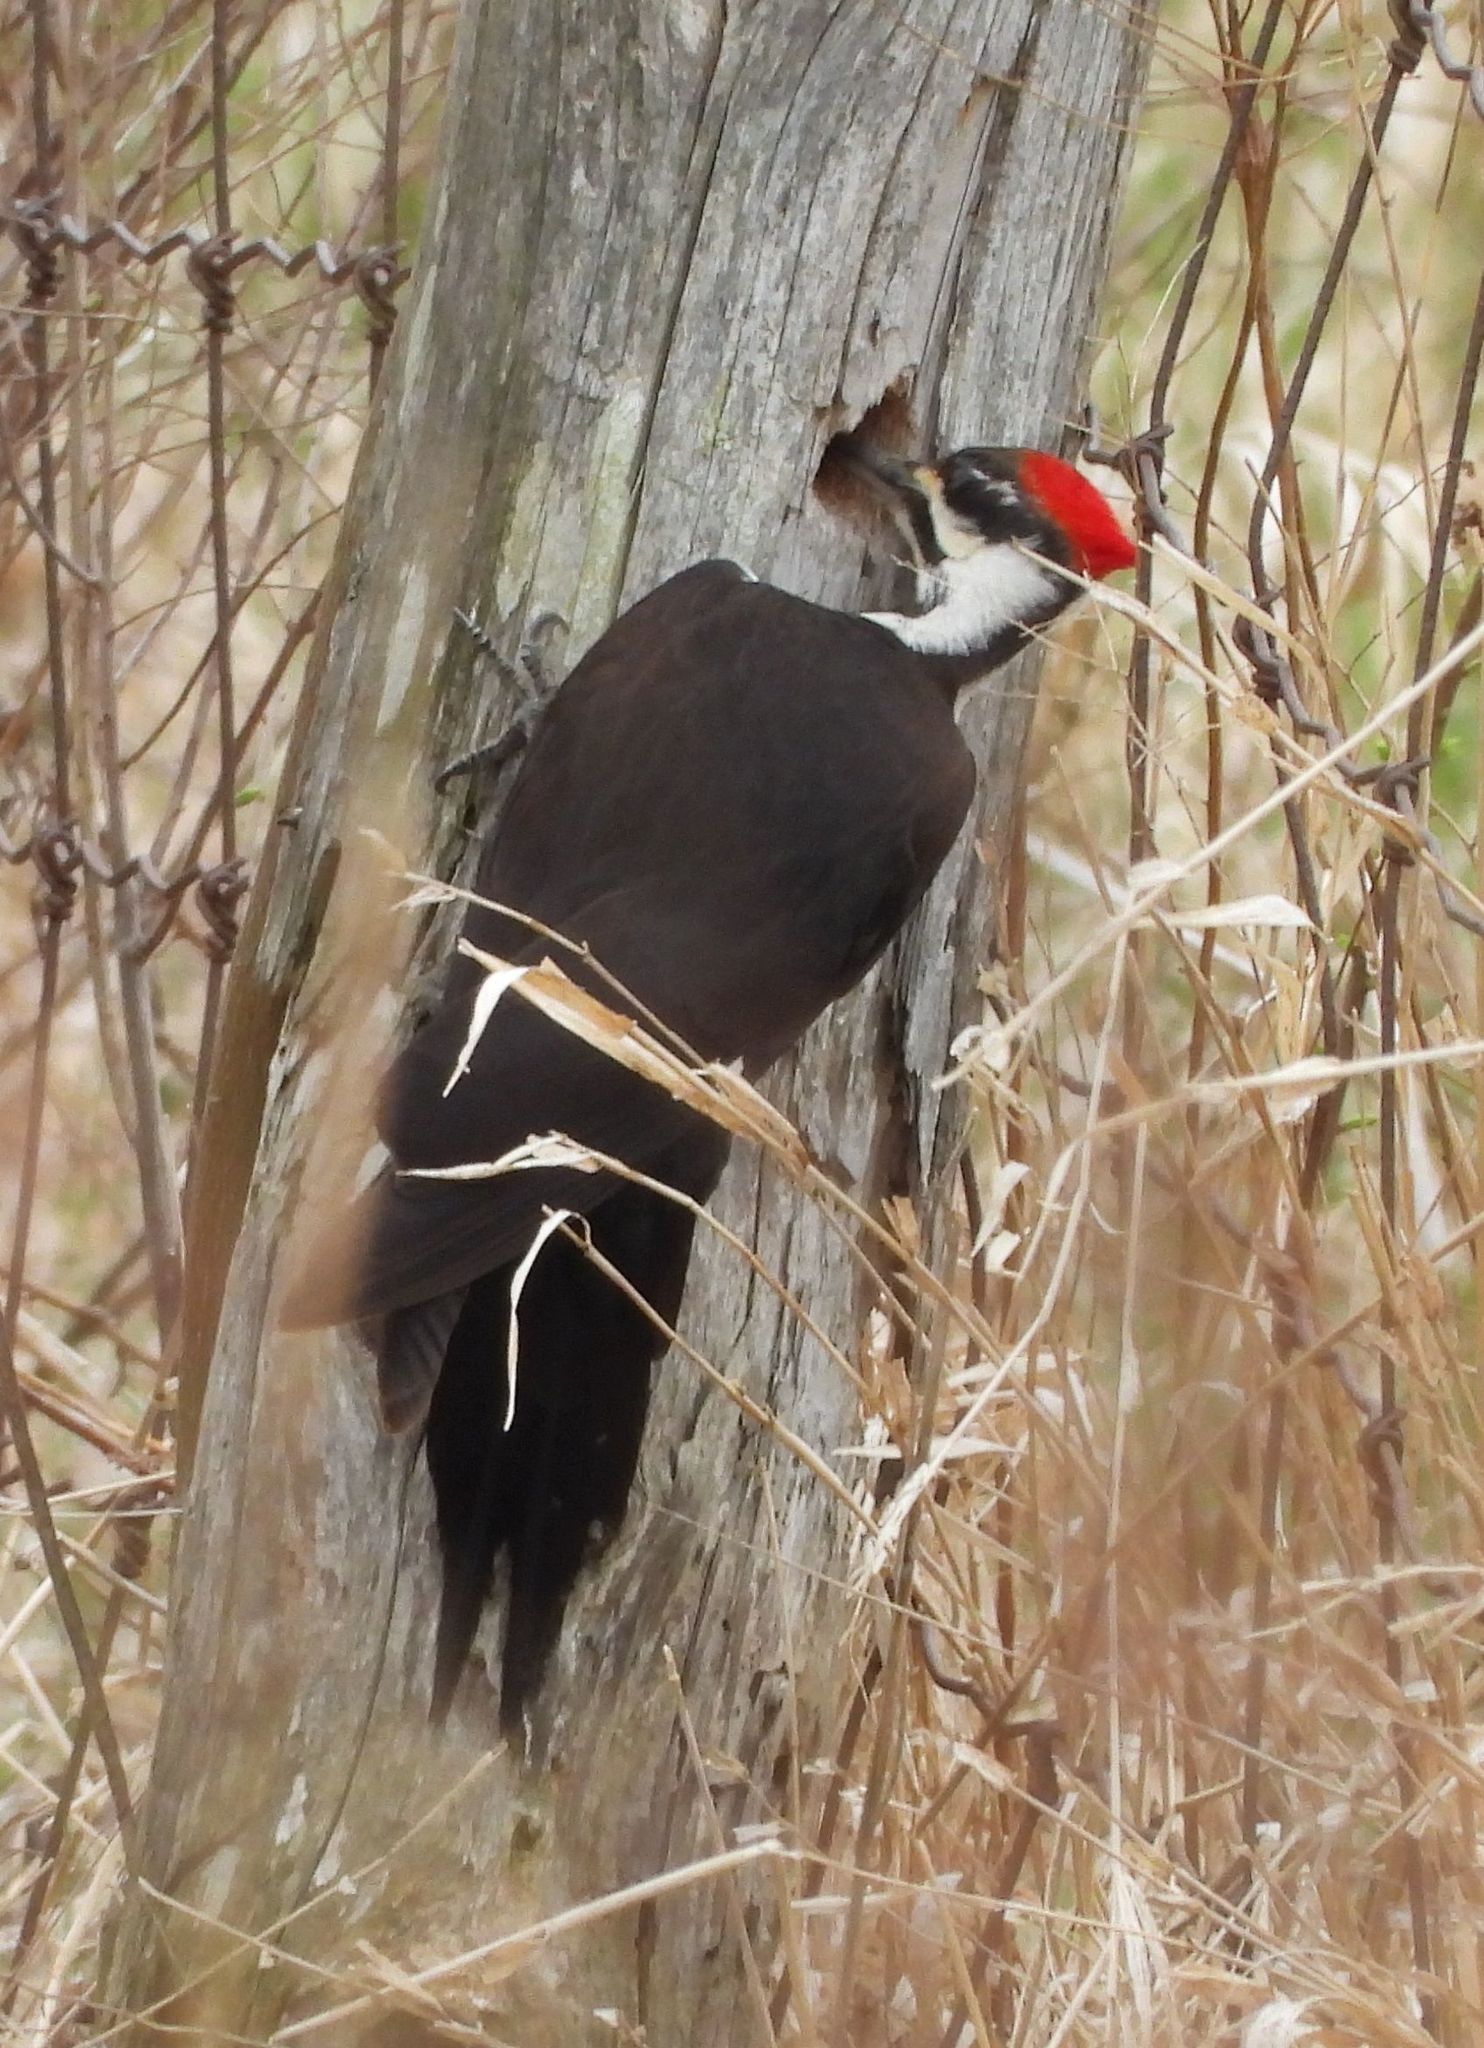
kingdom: Animalia
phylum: Chordata
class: Aves
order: Piciformes
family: Picidae
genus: Dryocopus
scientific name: Dryocopus pileatus
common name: Pileated woodpecker
